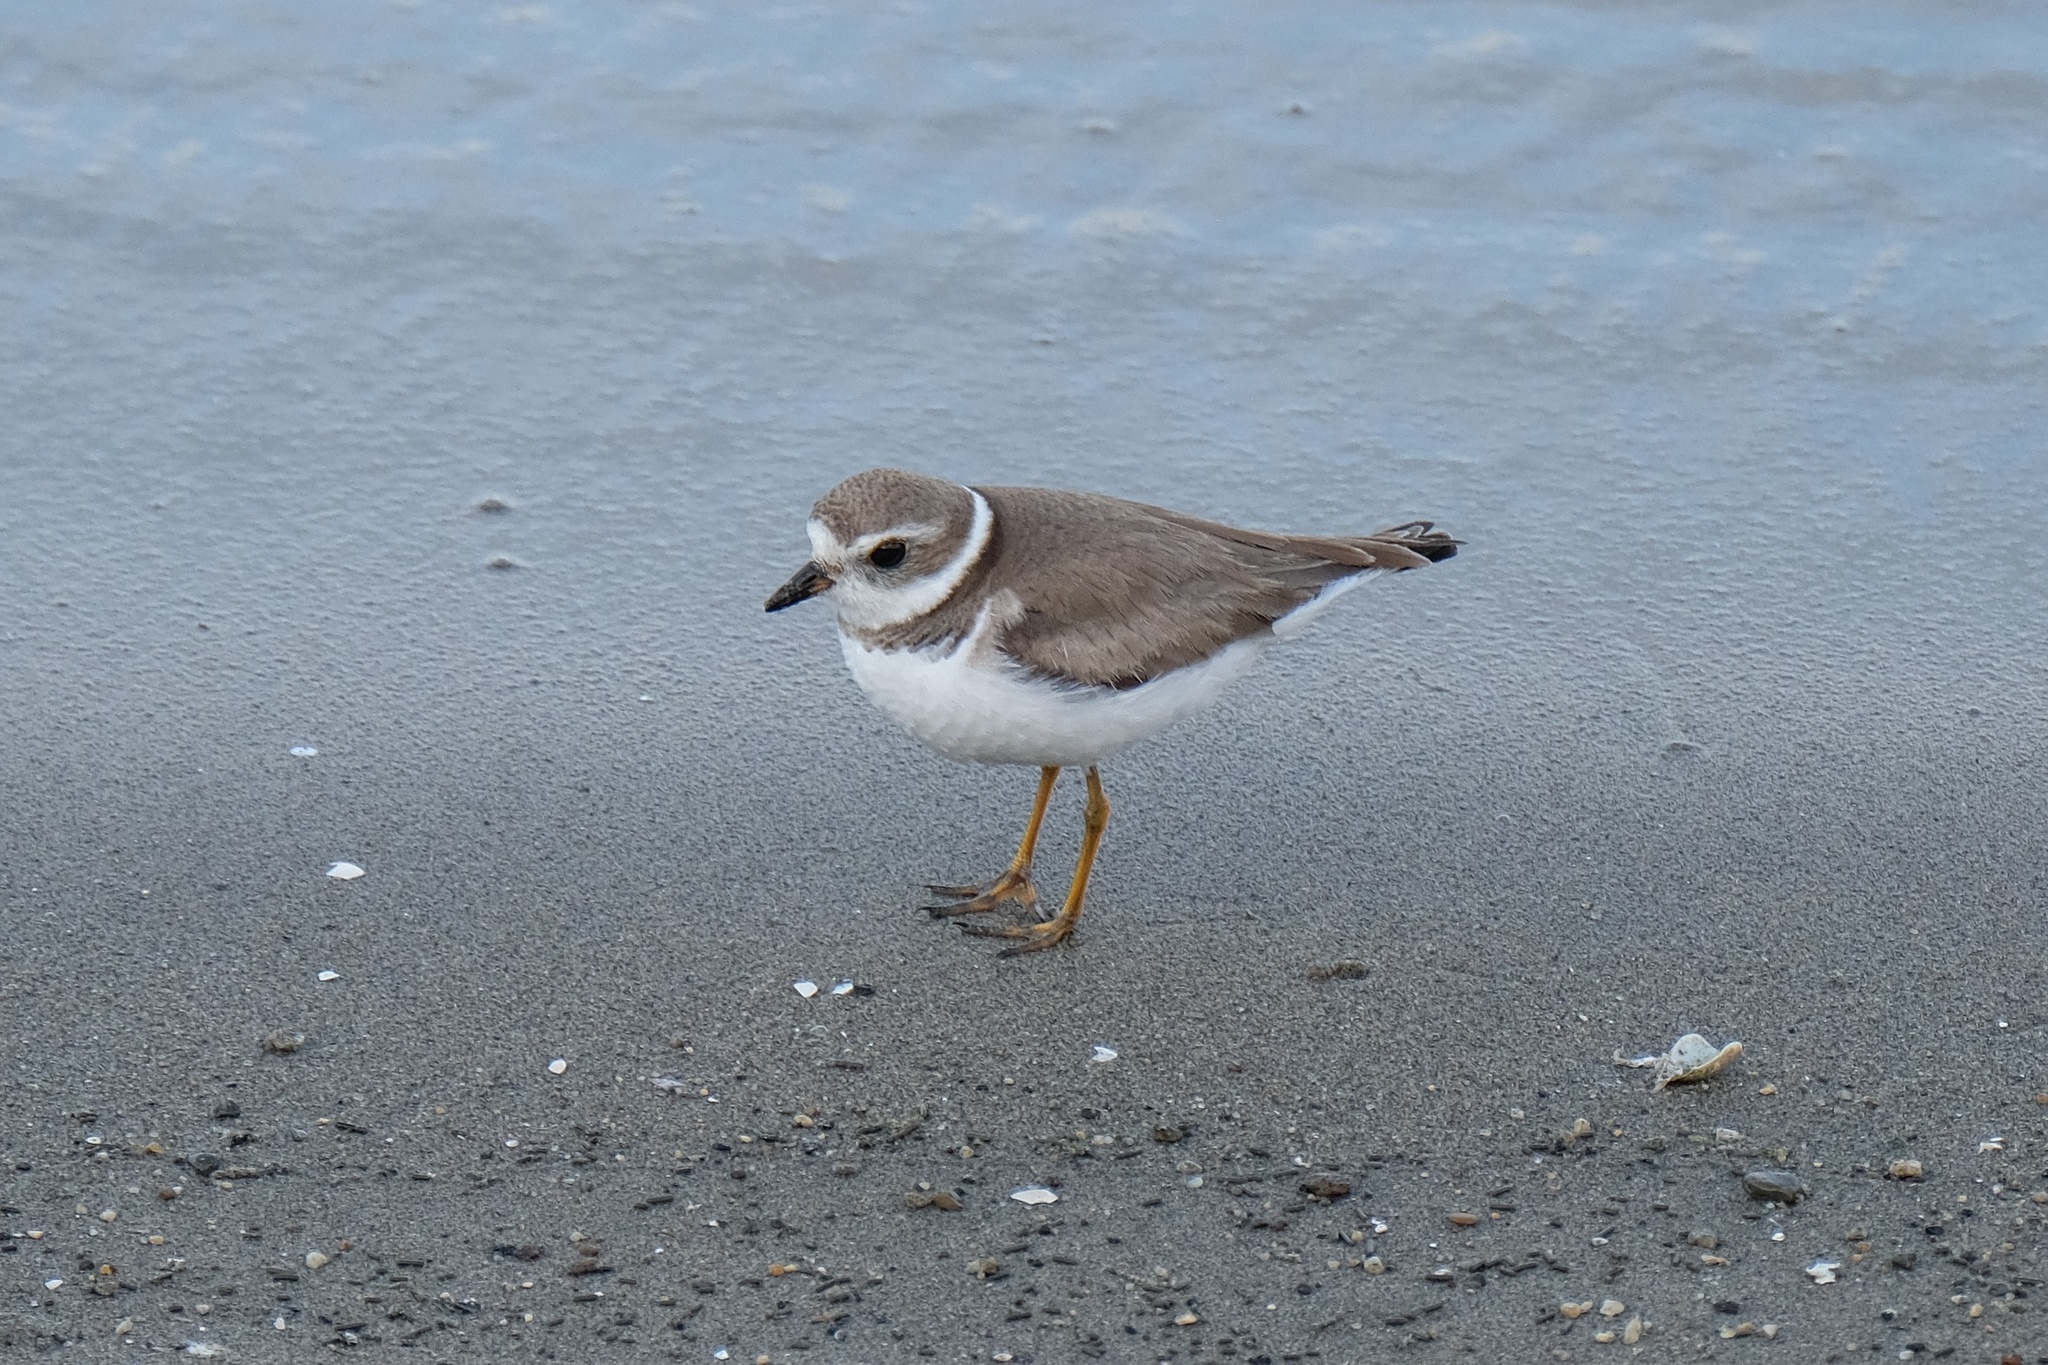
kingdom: Animalia
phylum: Chordata
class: Aves
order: Charadriiformes
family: Charadriidae
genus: Charadrius
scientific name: Charadrius semipalmatus
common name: Semipalmated plover
